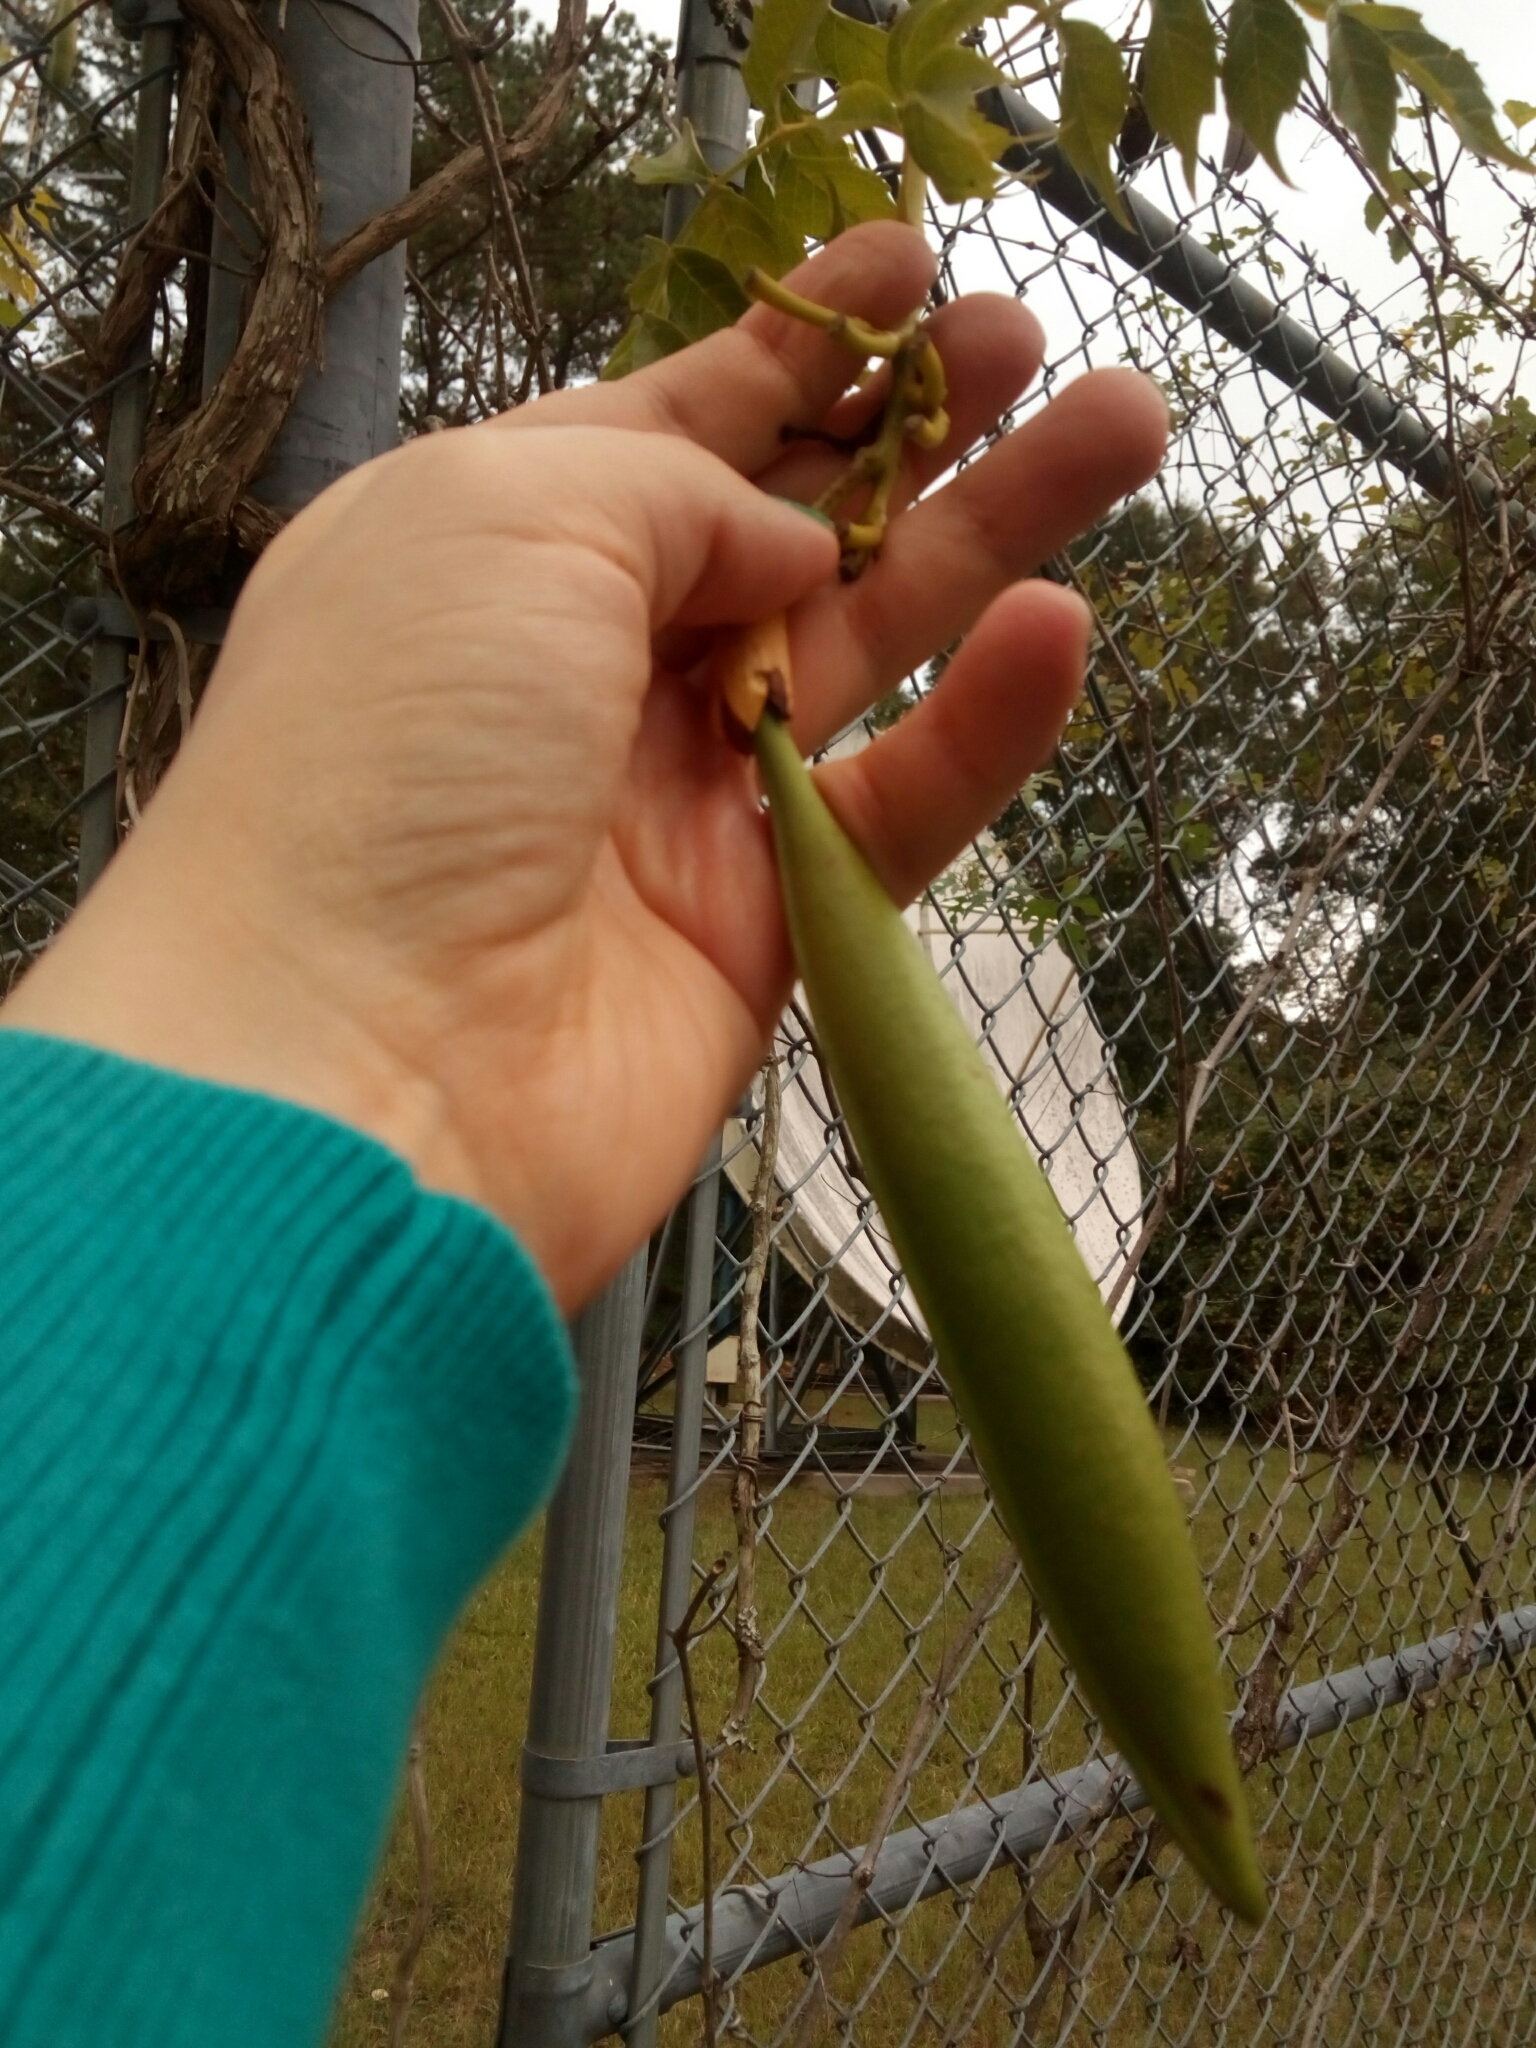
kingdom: Plantae
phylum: Tracheophyta
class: Magnoliopsida
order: Lamiales
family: Bignoniaceae
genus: Campsis
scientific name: Campsis radicans
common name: Trumpet-creeper
